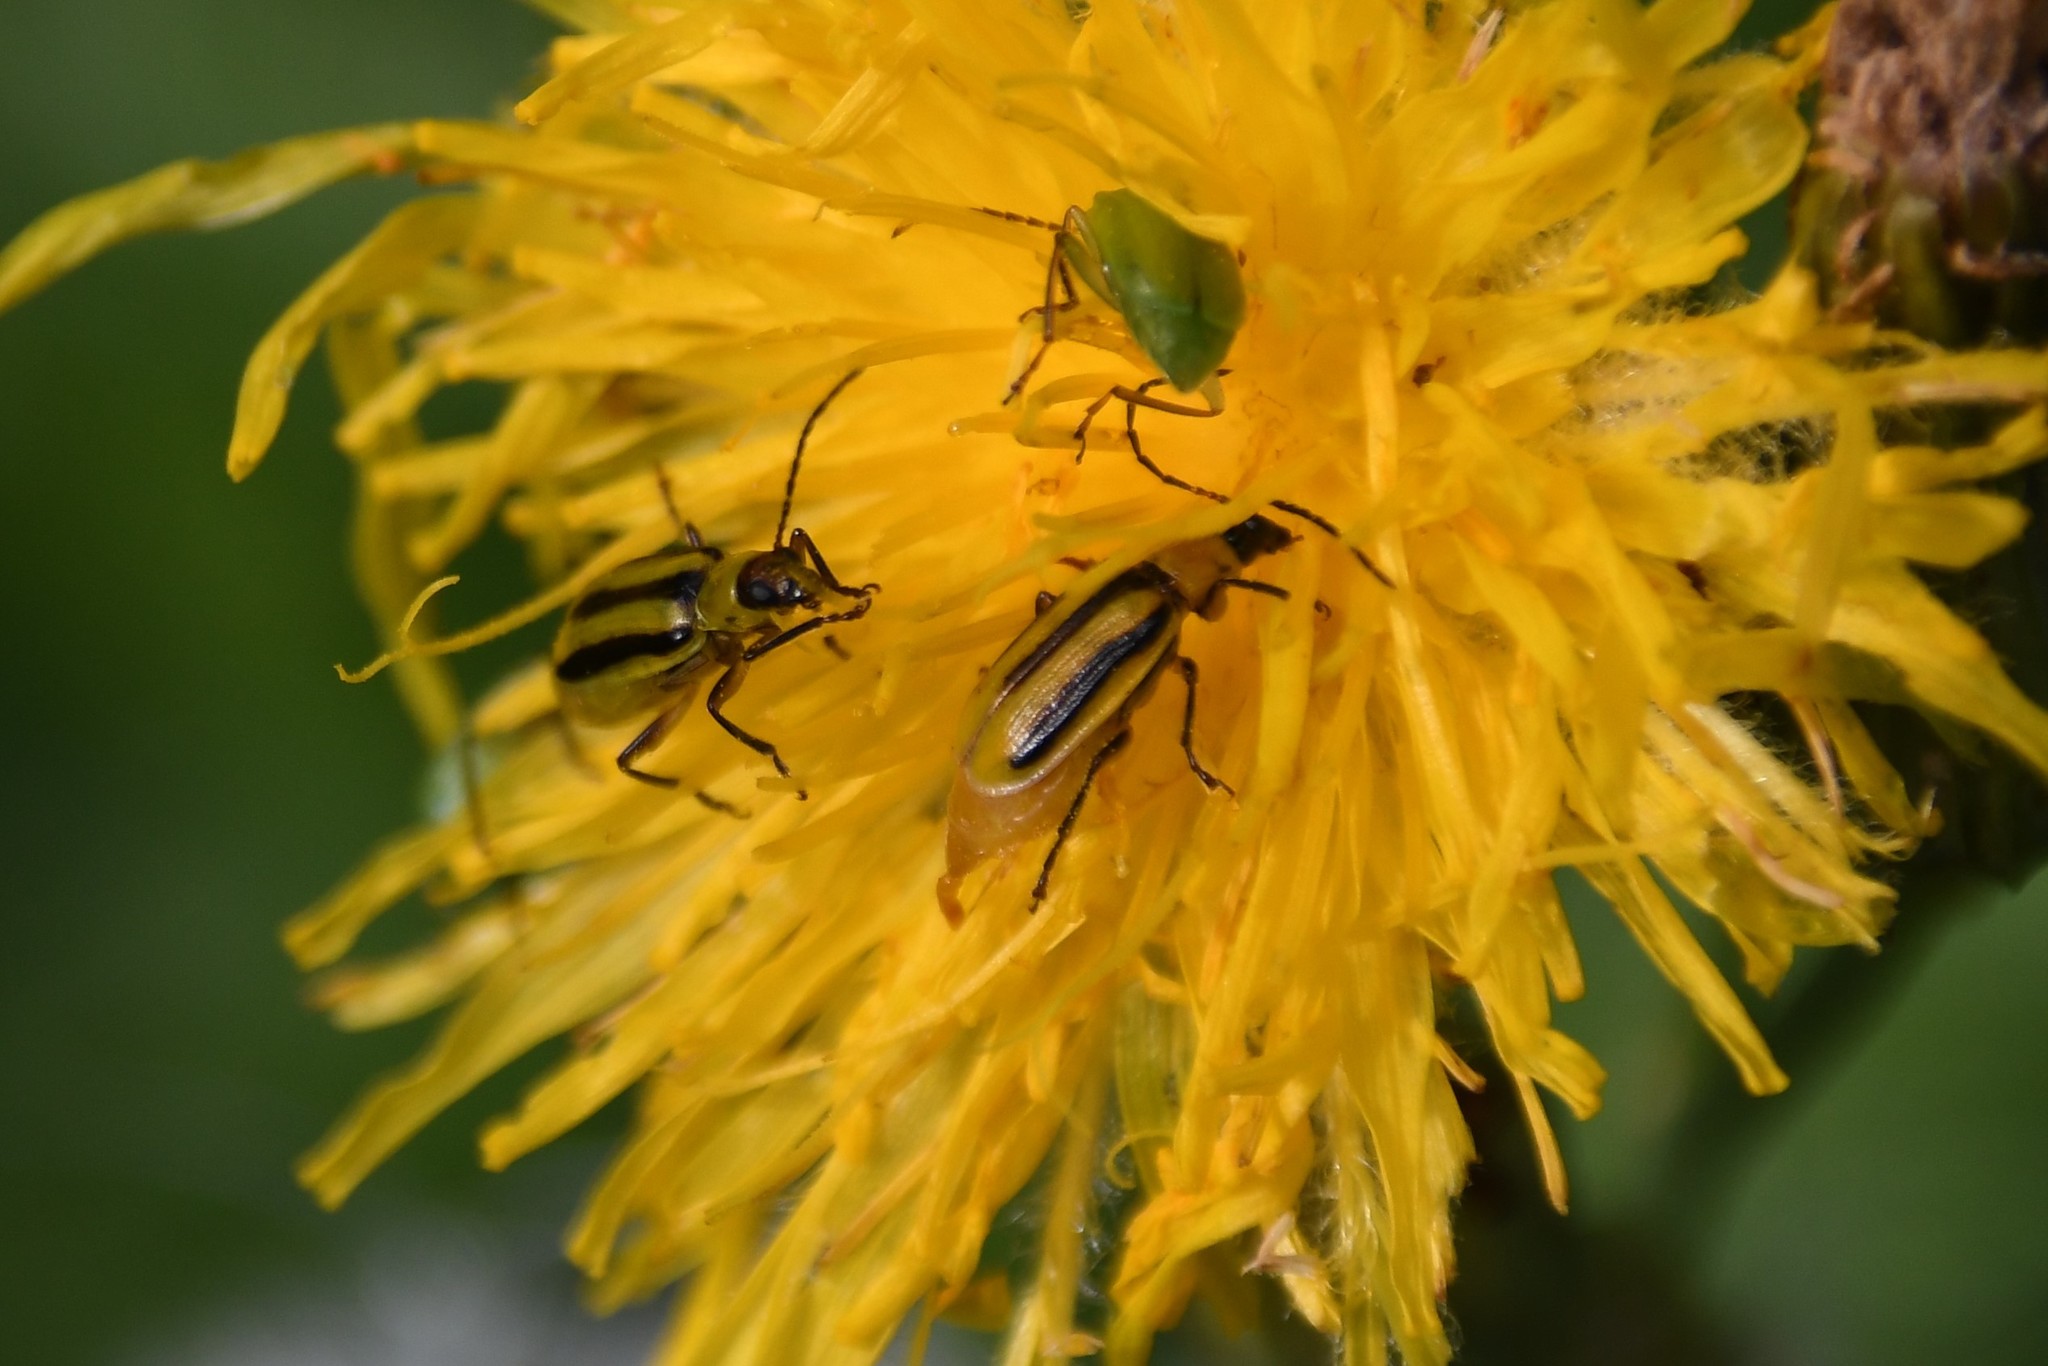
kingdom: Animalia
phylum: Arthropoda
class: Insecta
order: Coleoptera
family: Chrysomelidae
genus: Diabrotica
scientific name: Diabrotica virgifera
